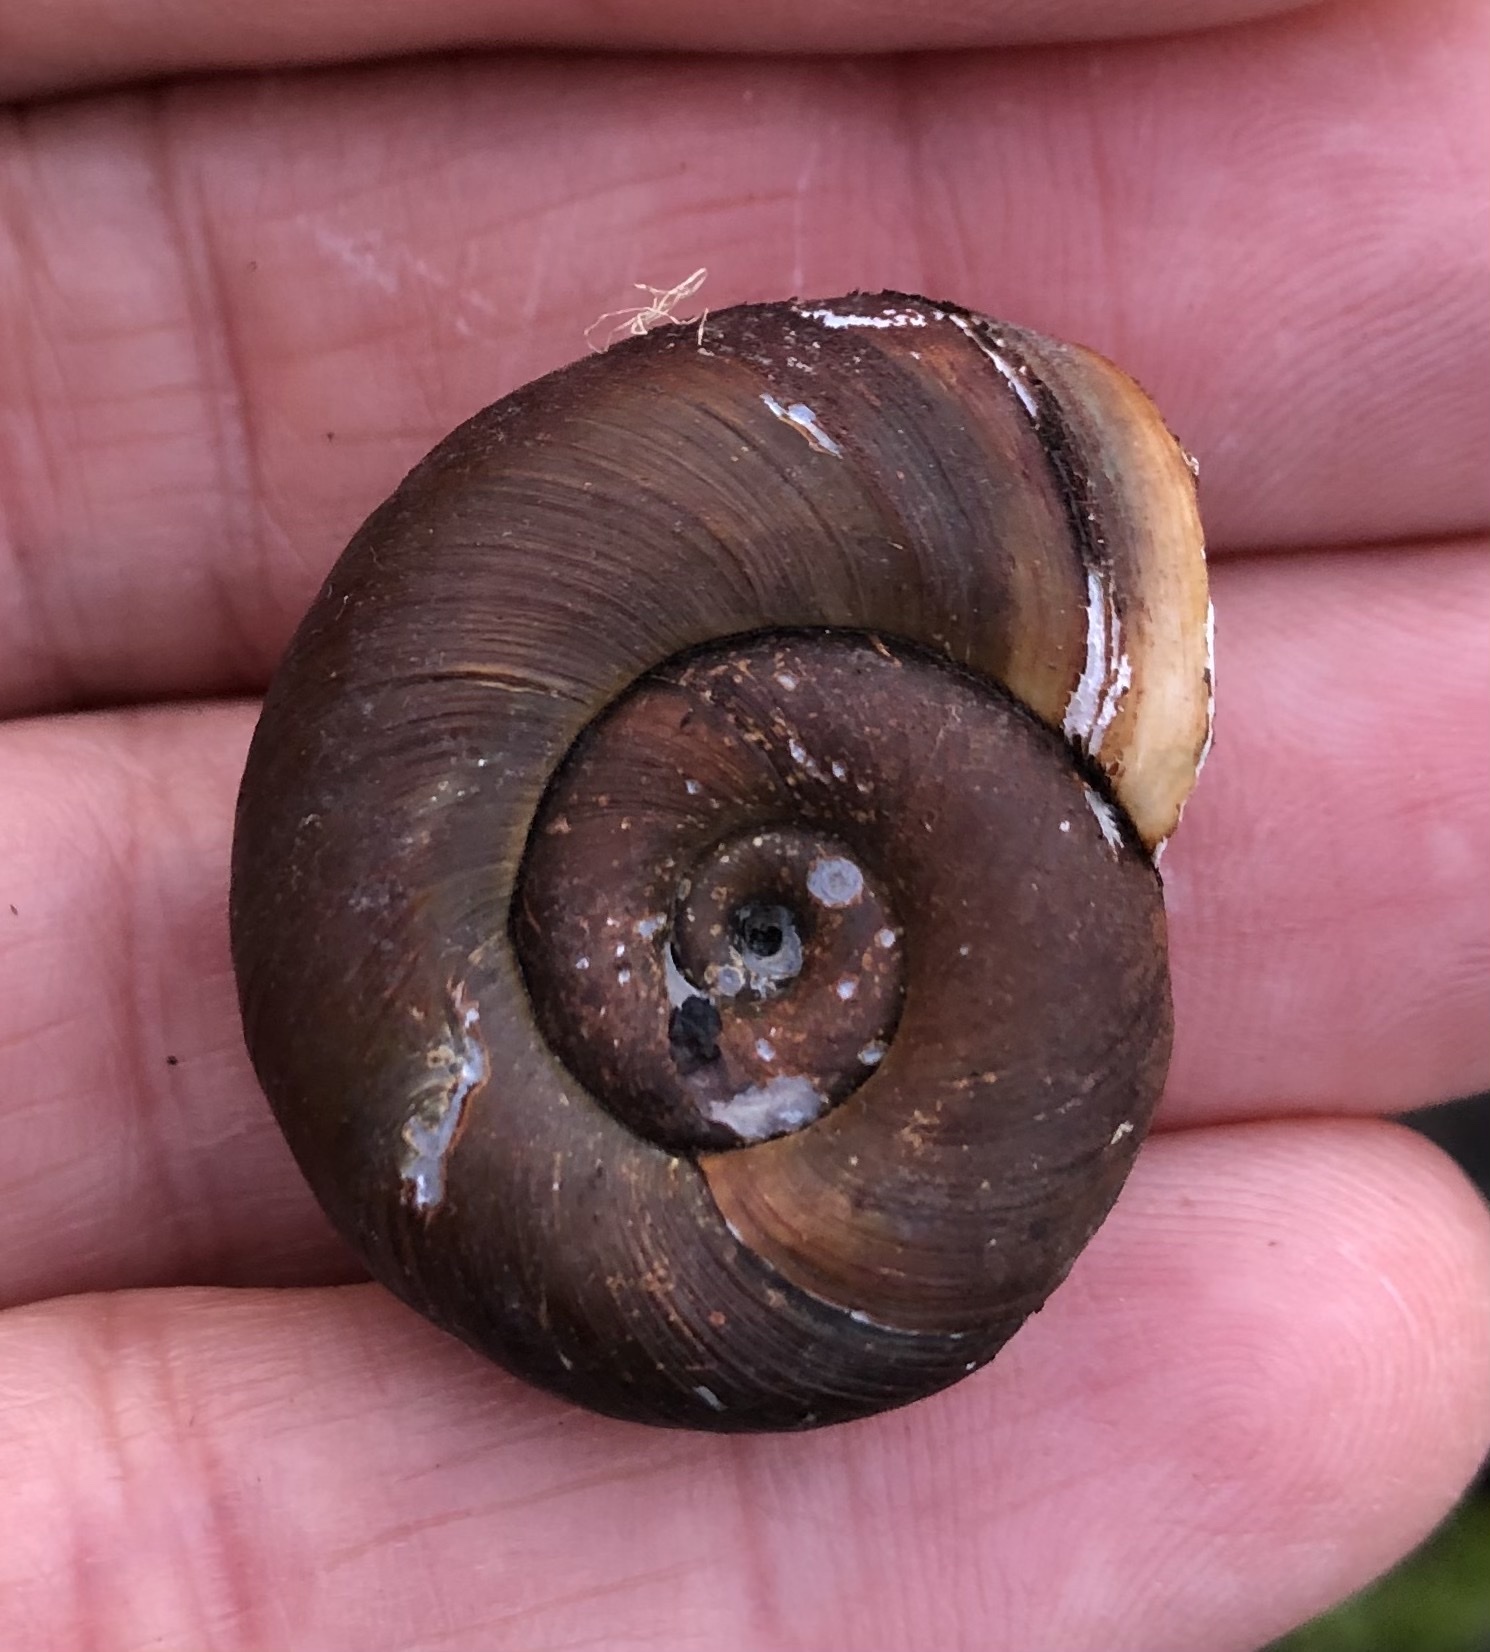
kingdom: Animalia
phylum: Mollusca
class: Gastropoda
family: Planorbidae
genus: Planorbarius
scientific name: Planorbarius corneus
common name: Great ramshorn
